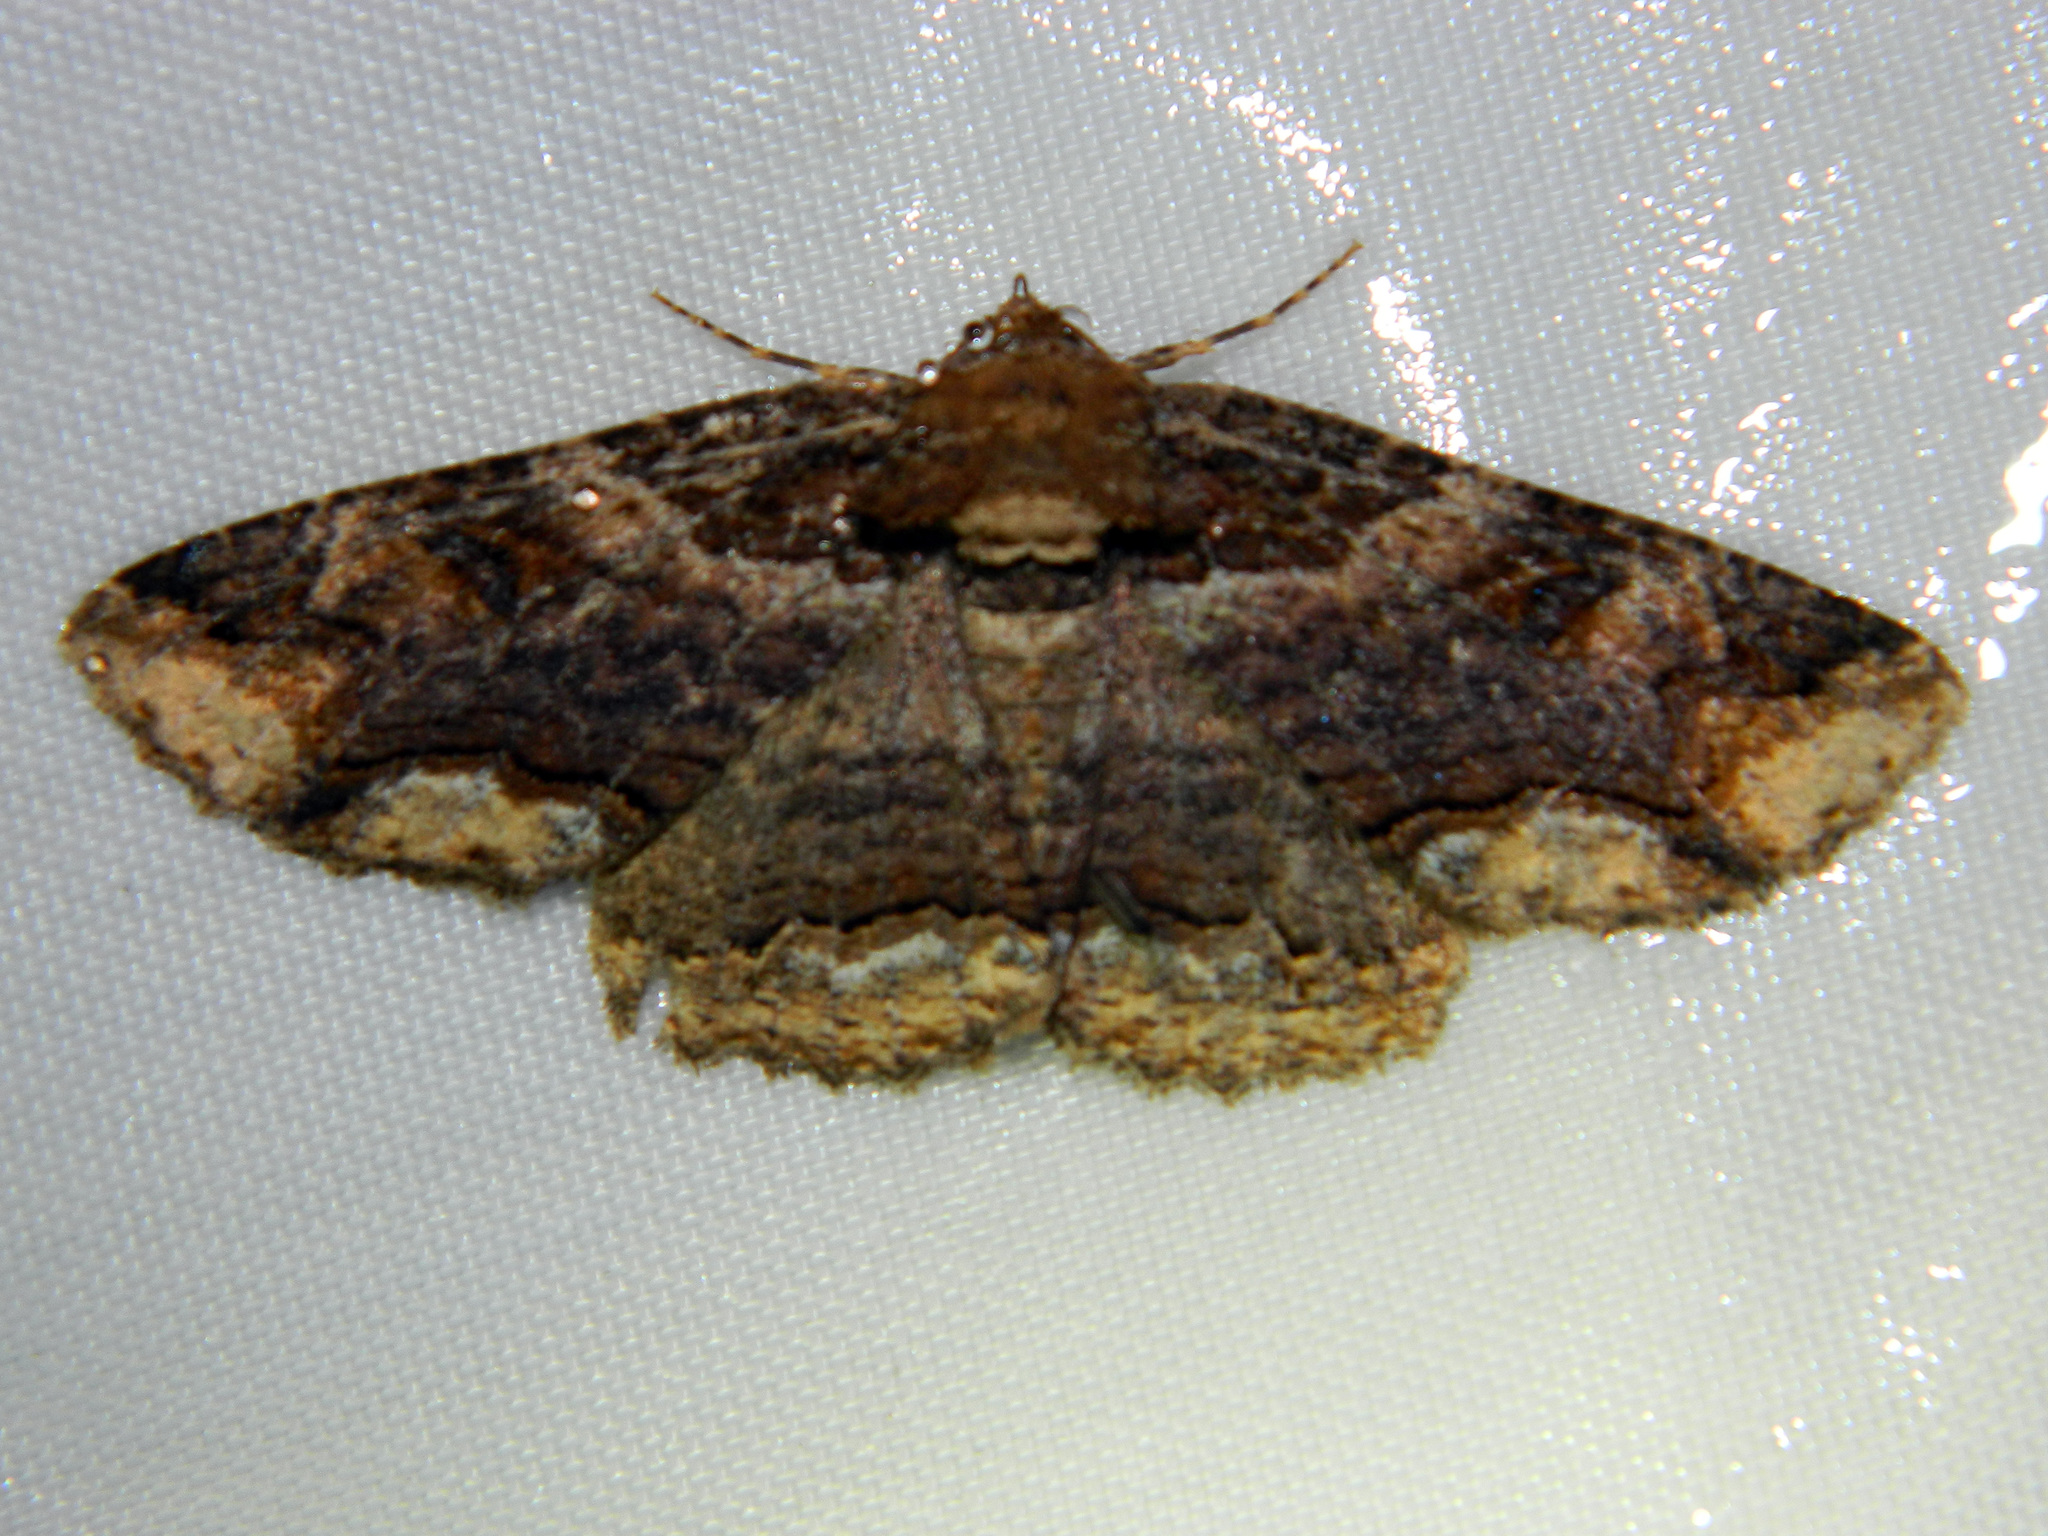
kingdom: Animalia
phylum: Arthropoda
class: Insecta
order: Lepidoptera
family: Erebidae
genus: Zale
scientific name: Zale minerea
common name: Colorful zale moth
